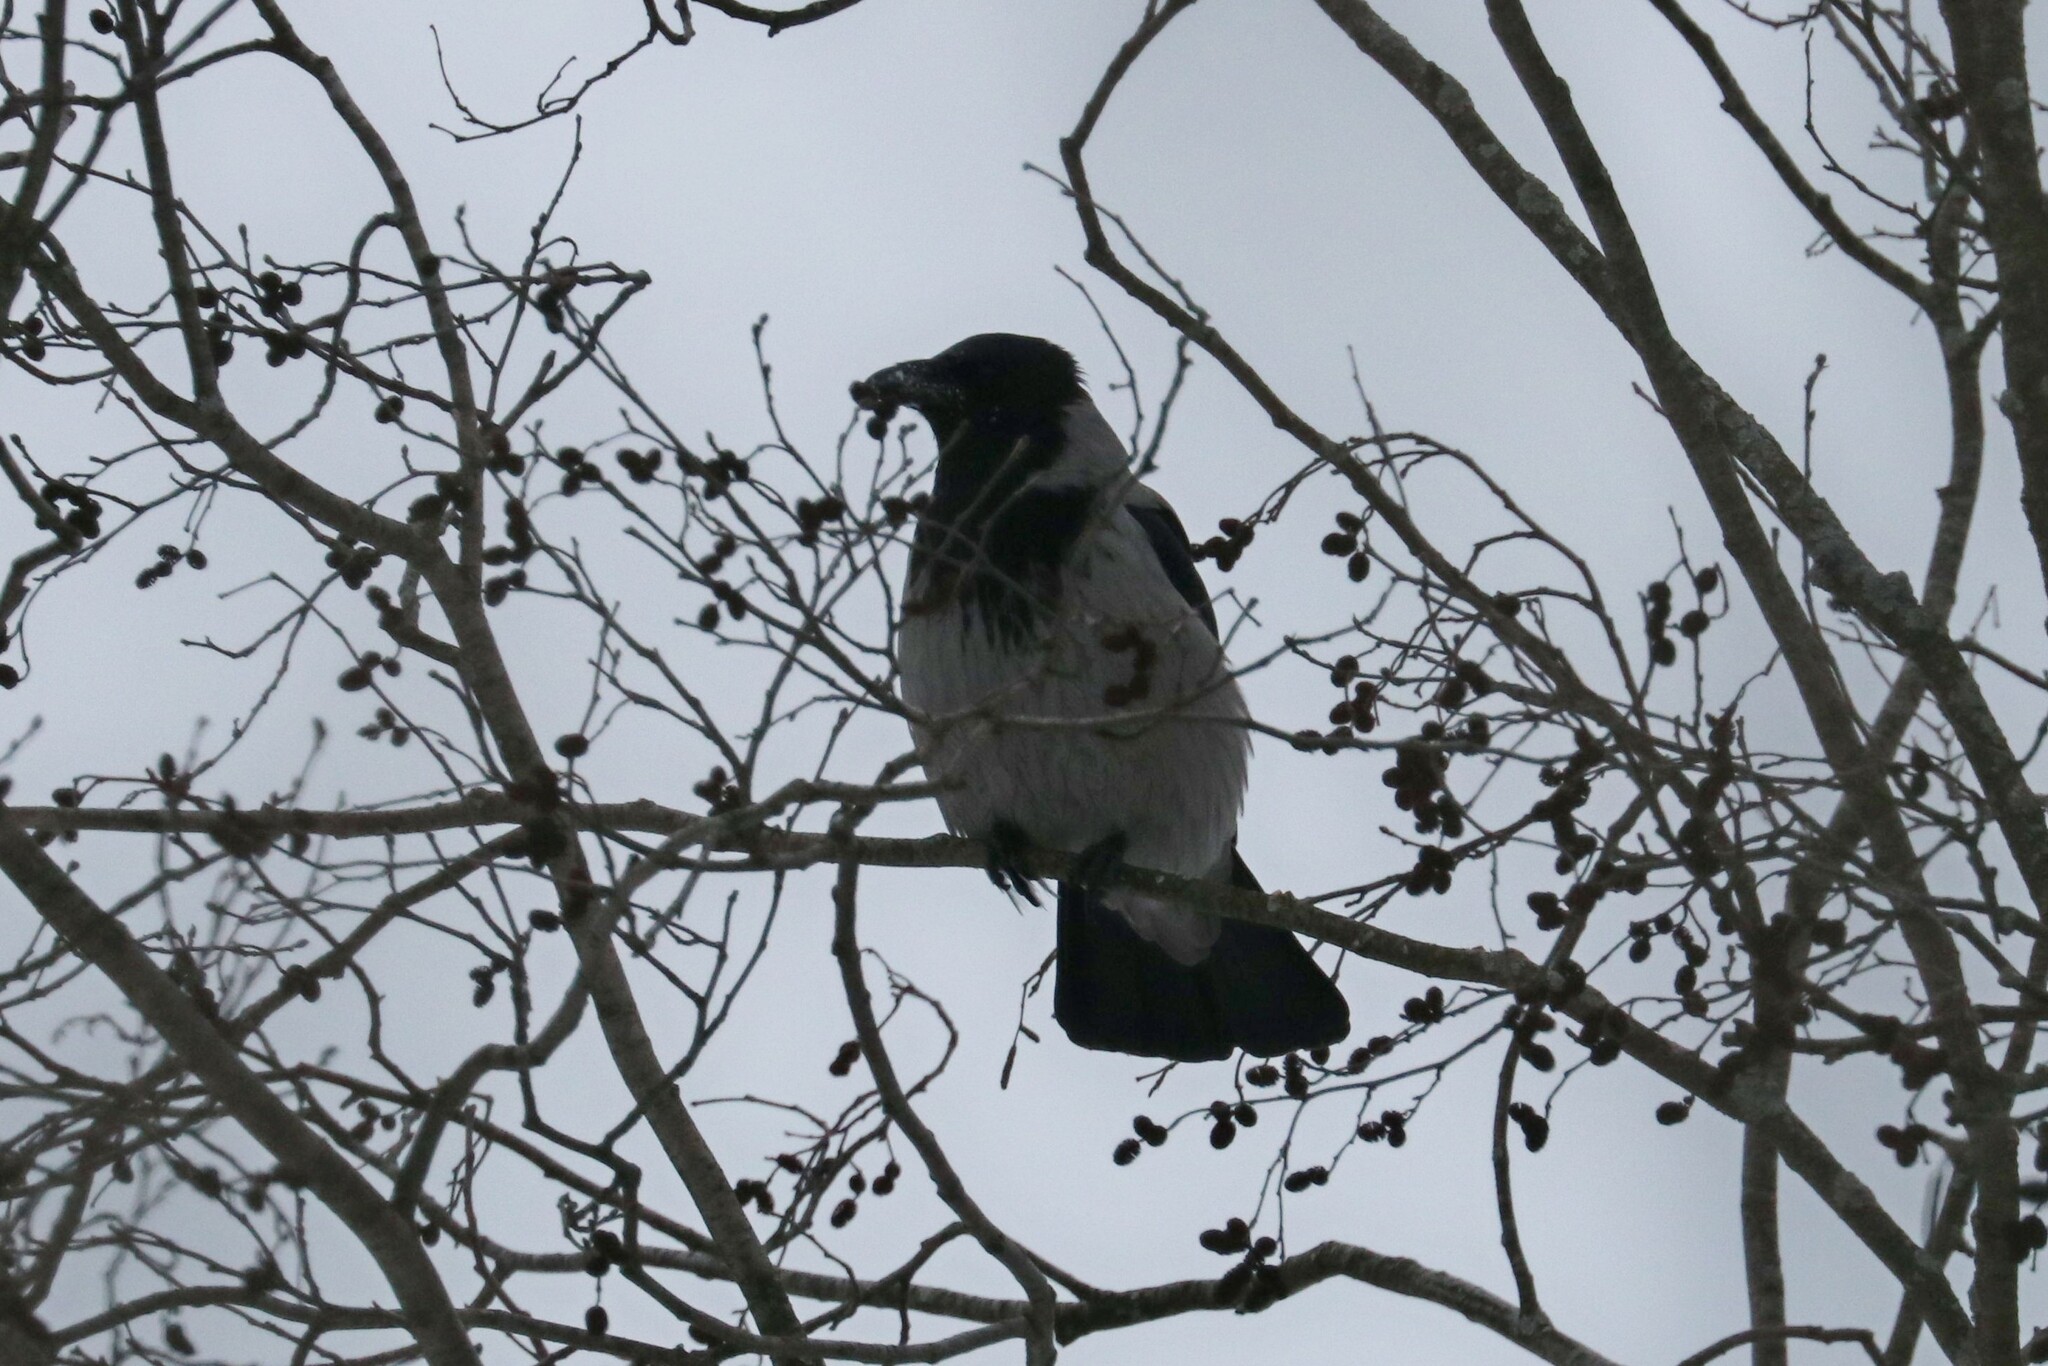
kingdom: Animalia
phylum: Chordata
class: Aves
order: Passeriformes
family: Corvidae
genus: Corvus
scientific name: Corvus cornix
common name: Hooded crow
